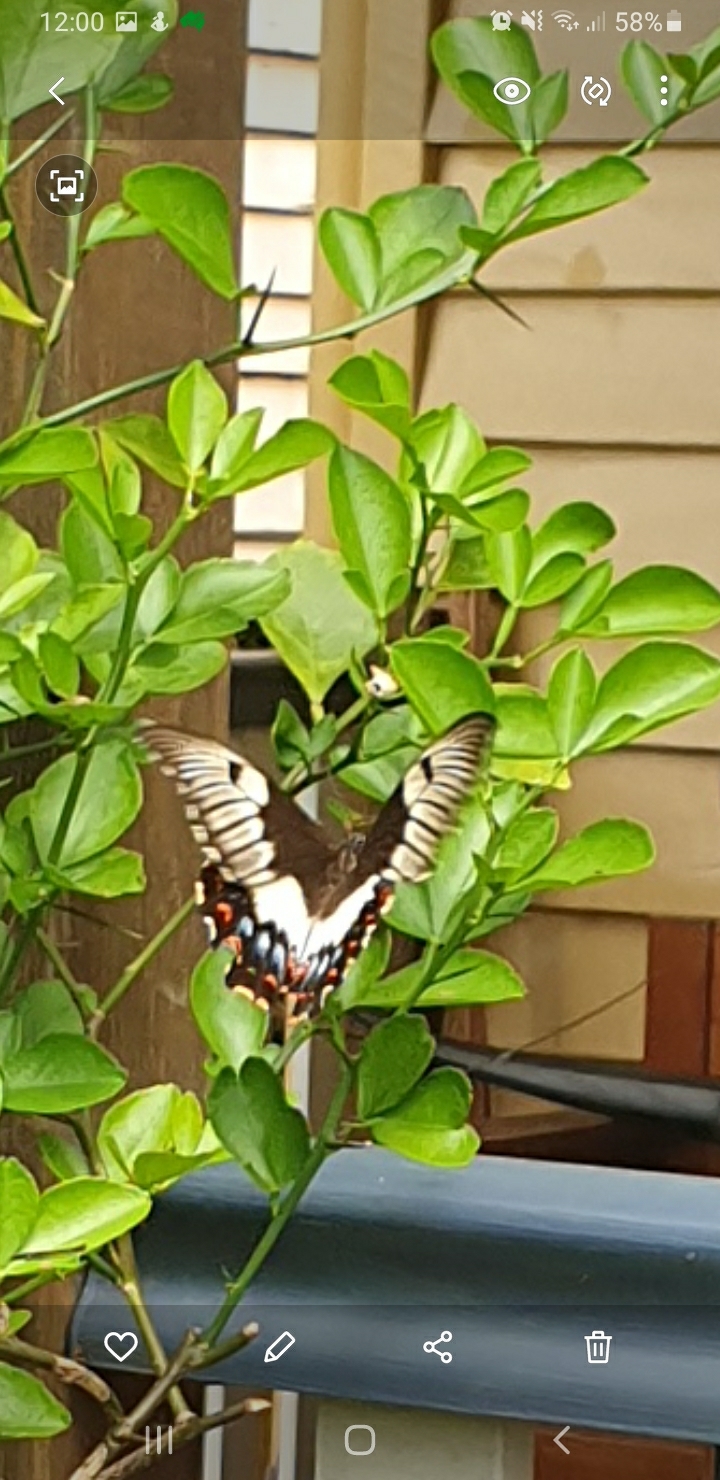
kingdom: Animalia
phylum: Arthropoda
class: Insecta
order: Lepidoptera
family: Papilionidae
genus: Papilio
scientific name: Papilio aegeus
